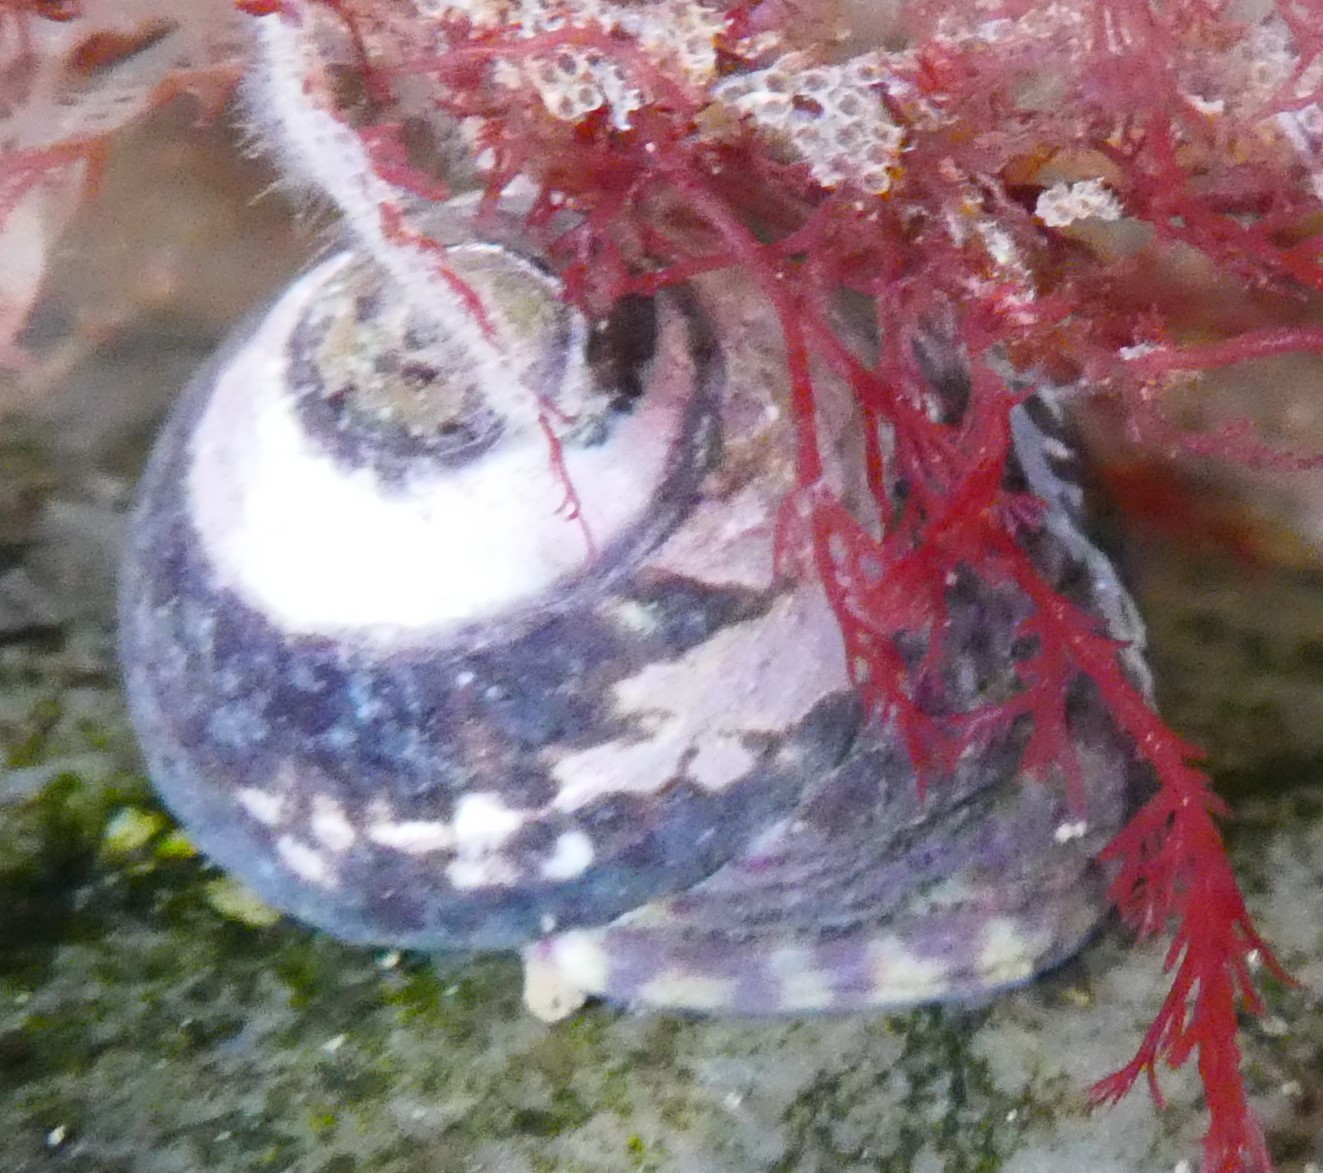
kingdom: Animalia
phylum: Mollusca
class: Gastropoda
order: Trochida
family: Trochidae
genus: Steromphala
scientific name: Steromphala umbilicalis
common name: Flat top shell
